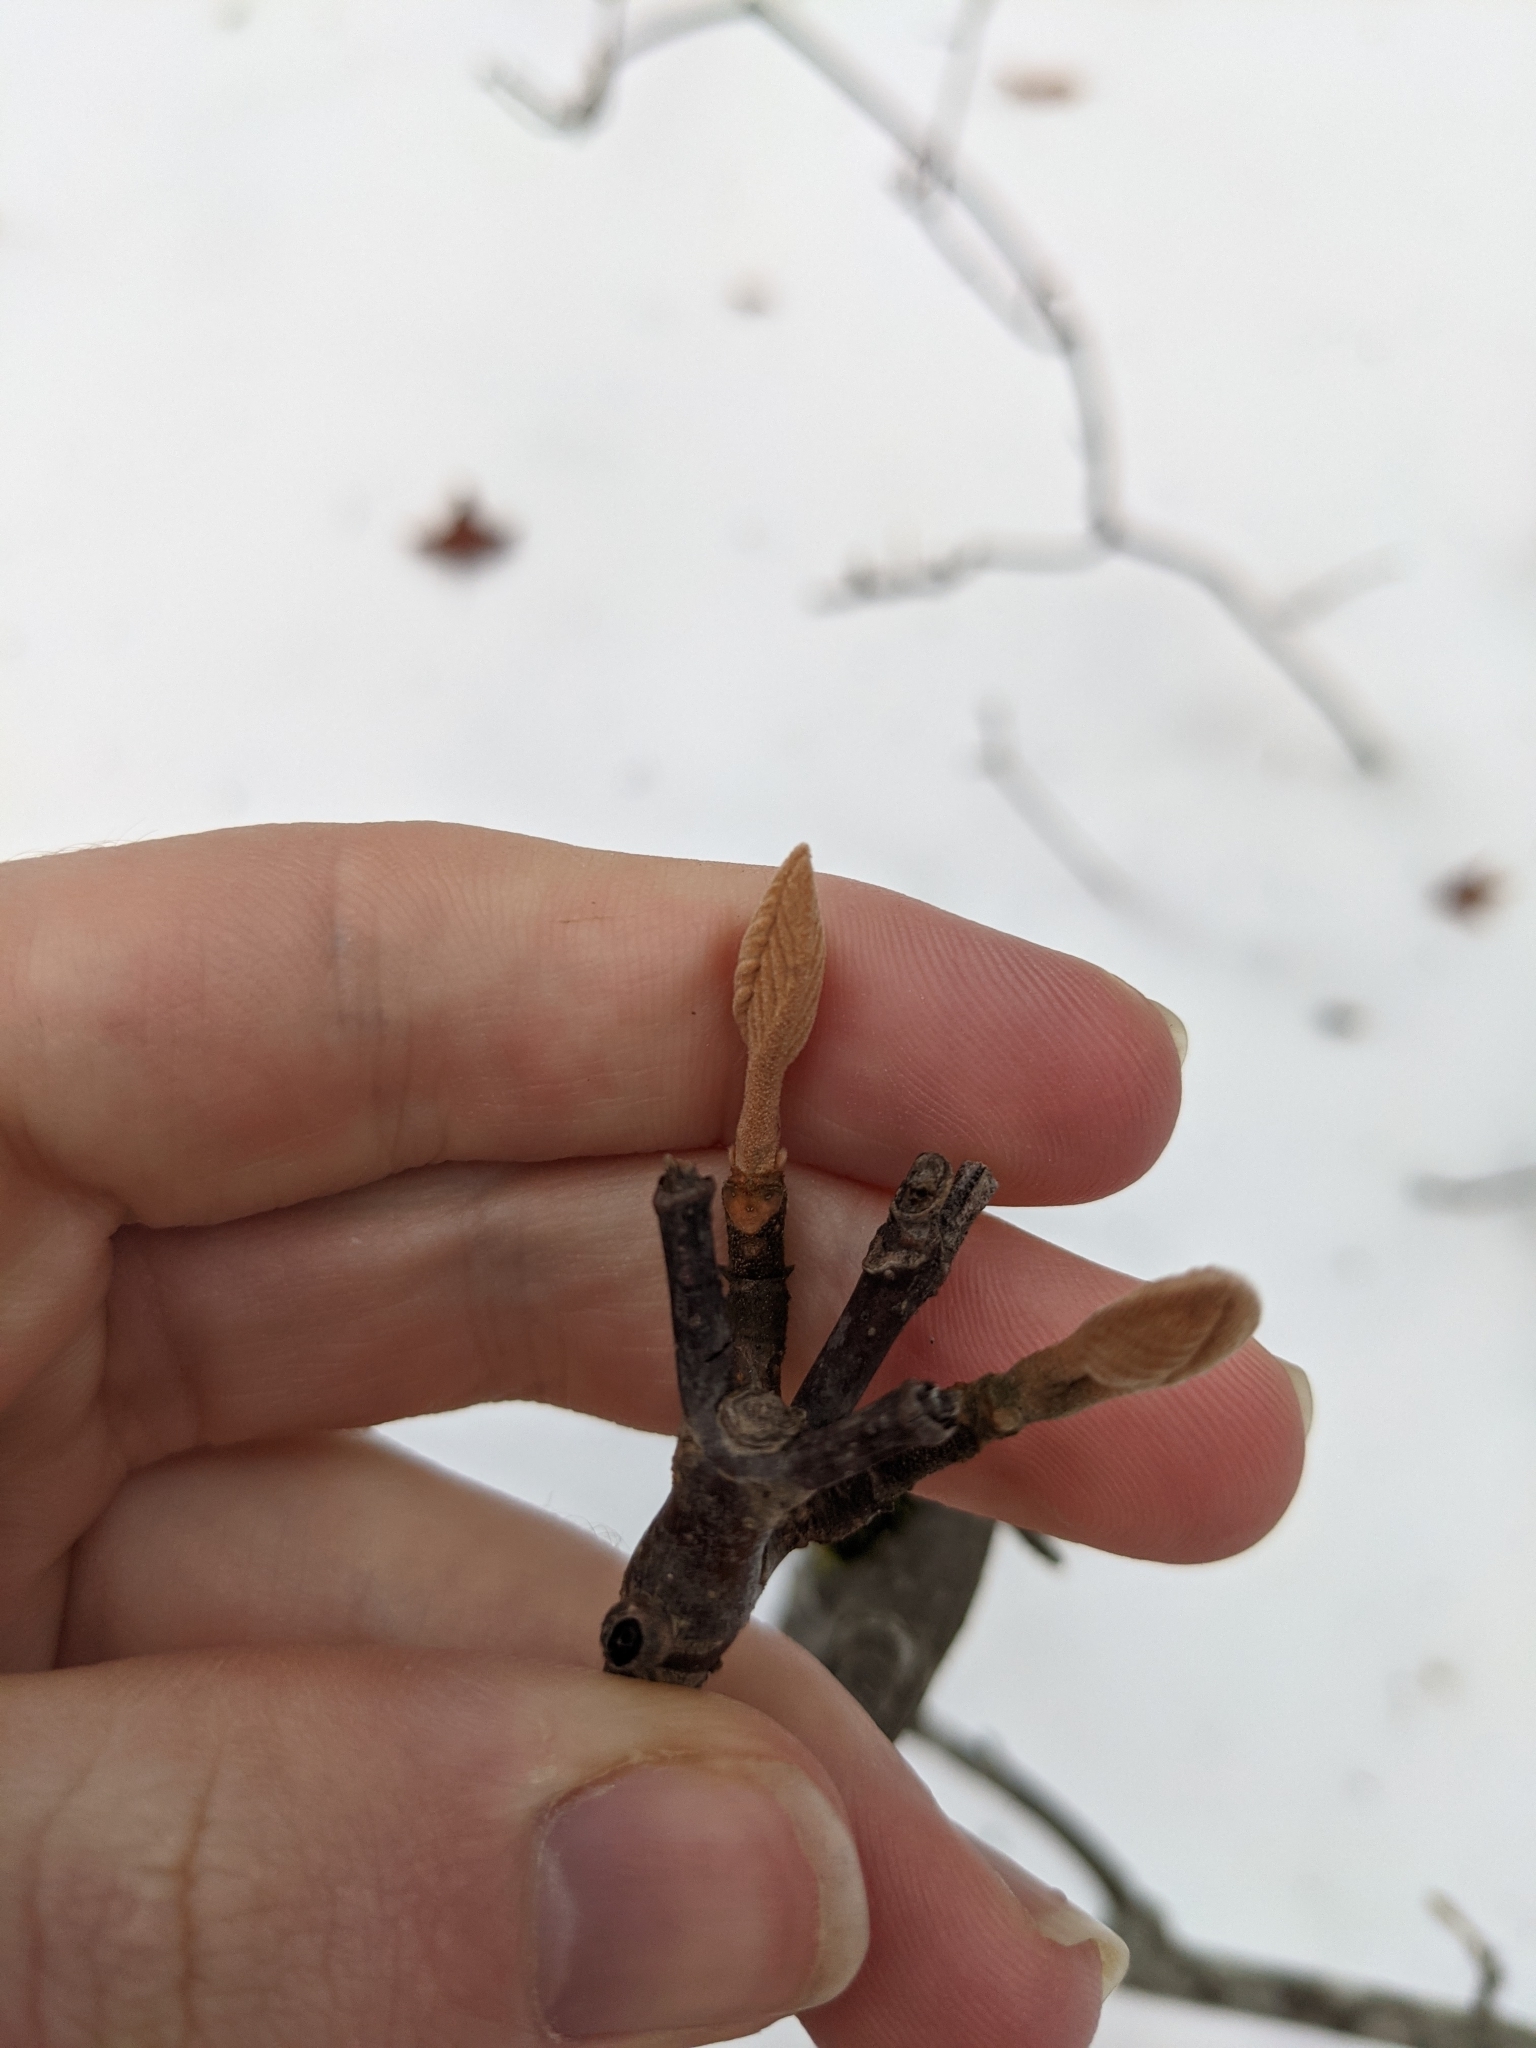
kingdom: Plantae
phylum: Tracheophyta
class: Magnoliopsida
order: Dipsacales
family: Viburnaceae
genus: Viburnum
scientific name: Viburnum lantanoides
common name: Hobblebush
